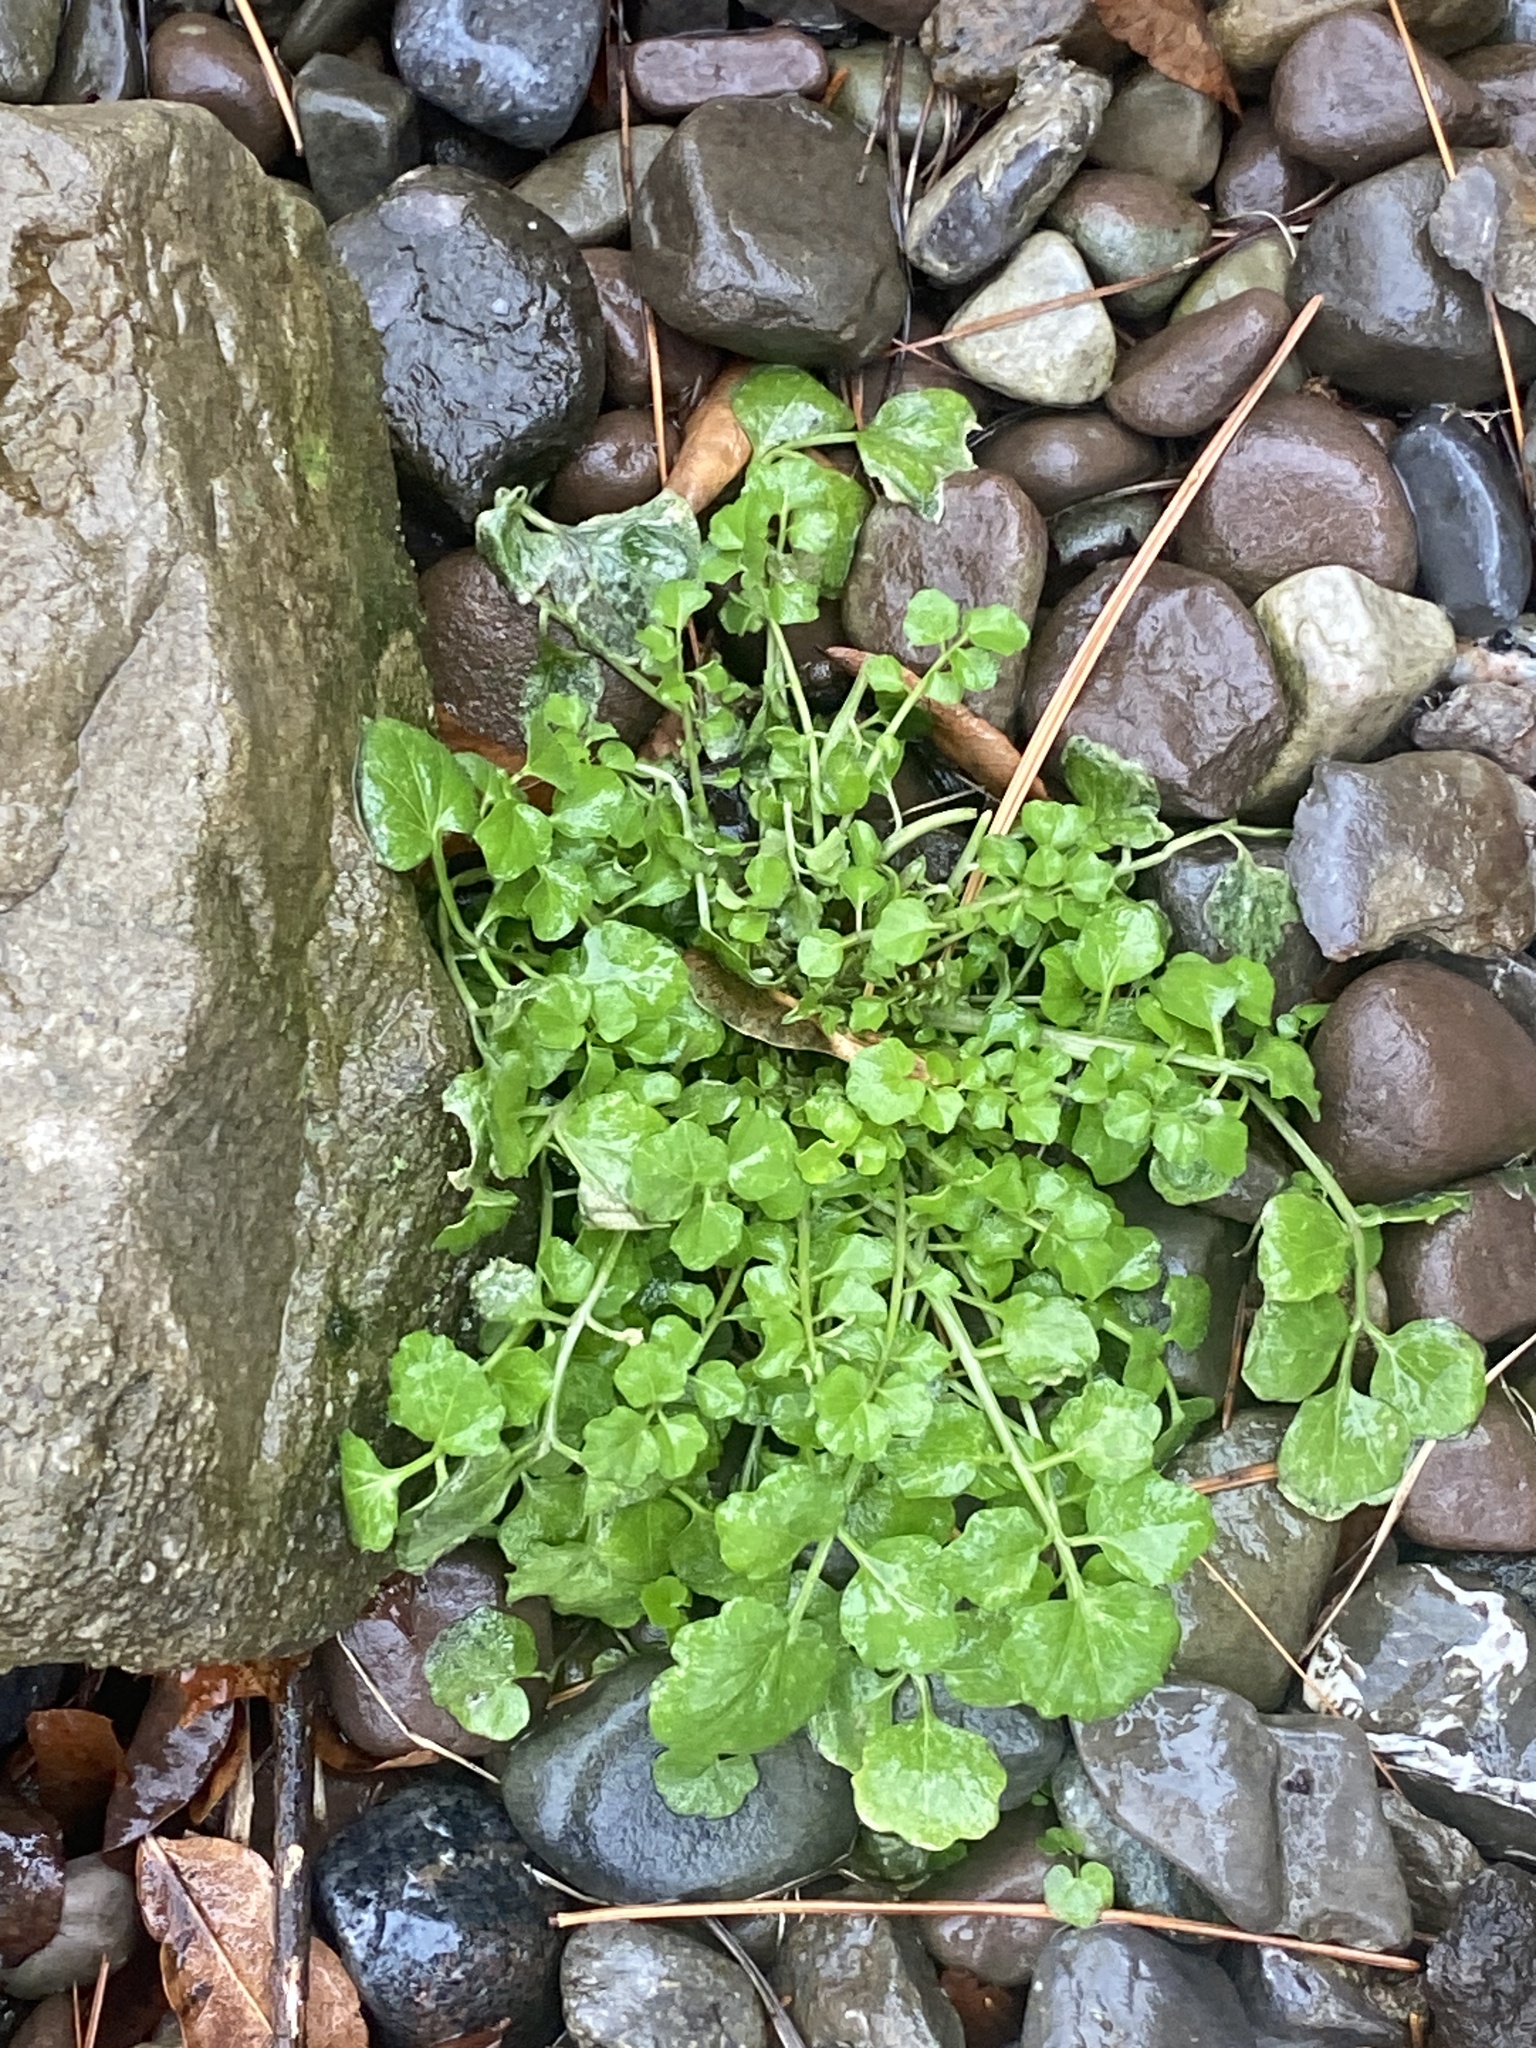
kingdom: Plantae
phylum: Tracheophyta
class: Magnoliopsida
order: Brassicales
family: Brassicaceae
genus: Cardamine
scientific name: Cardamine hirsuta
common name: Hairy bittercress
